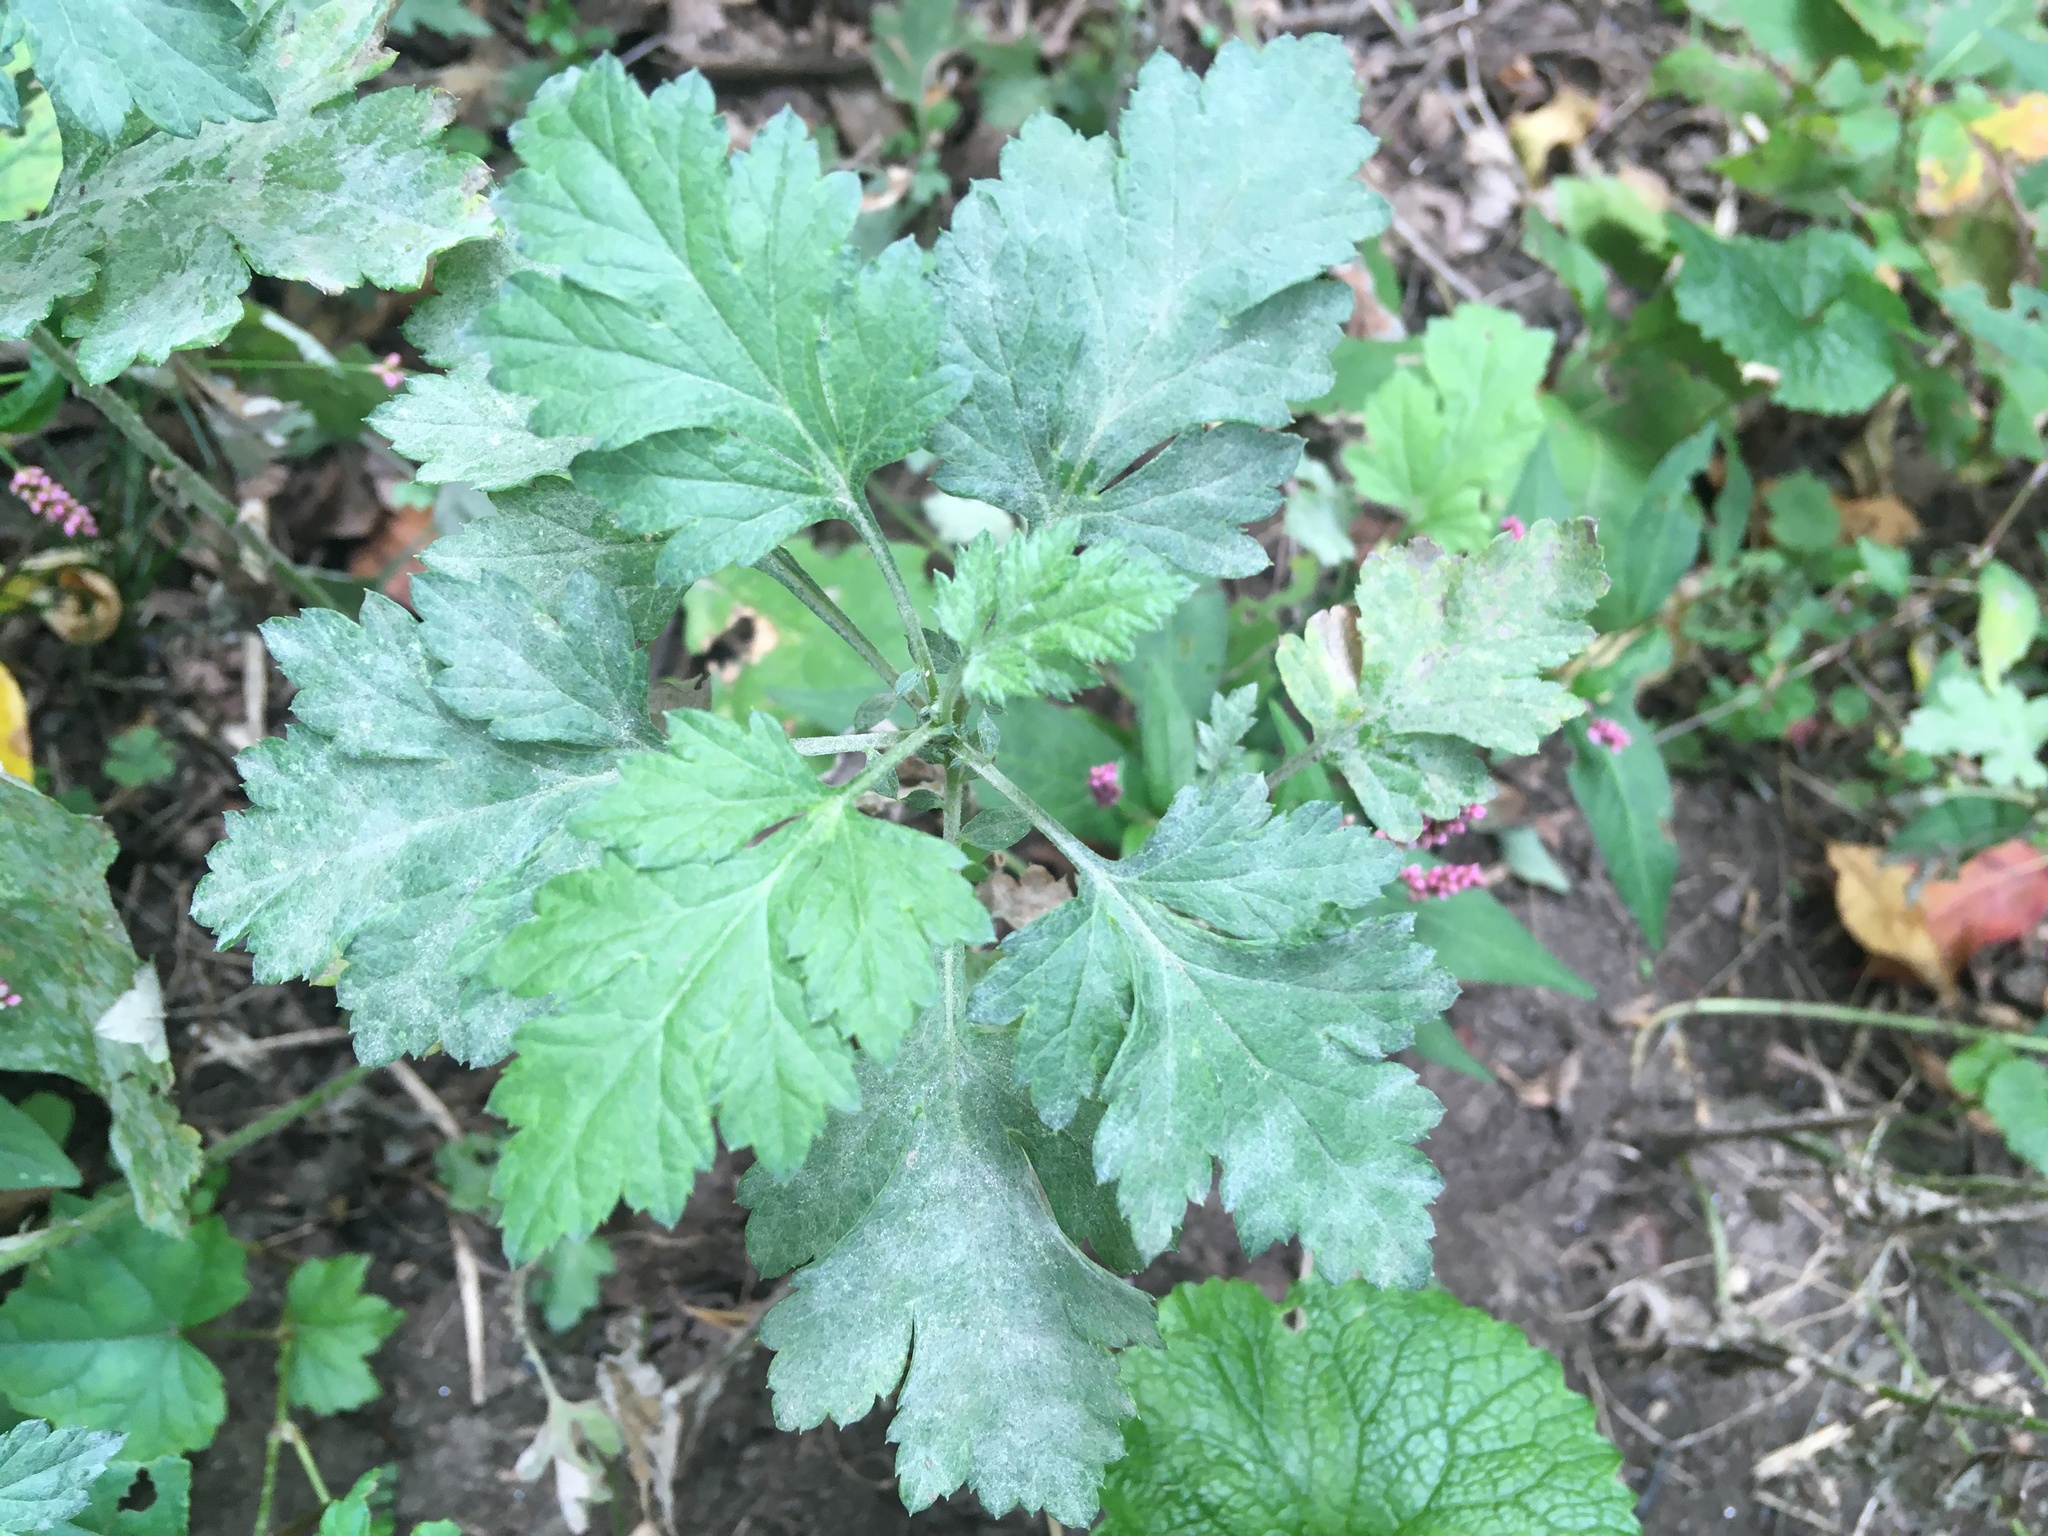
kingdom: Plantae
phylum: Tracheophyta
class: Magnoliopsida
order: Asterales
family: Asteraceae
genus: Artemisia
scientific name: Artemisia vulgaris
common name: Mugwort
